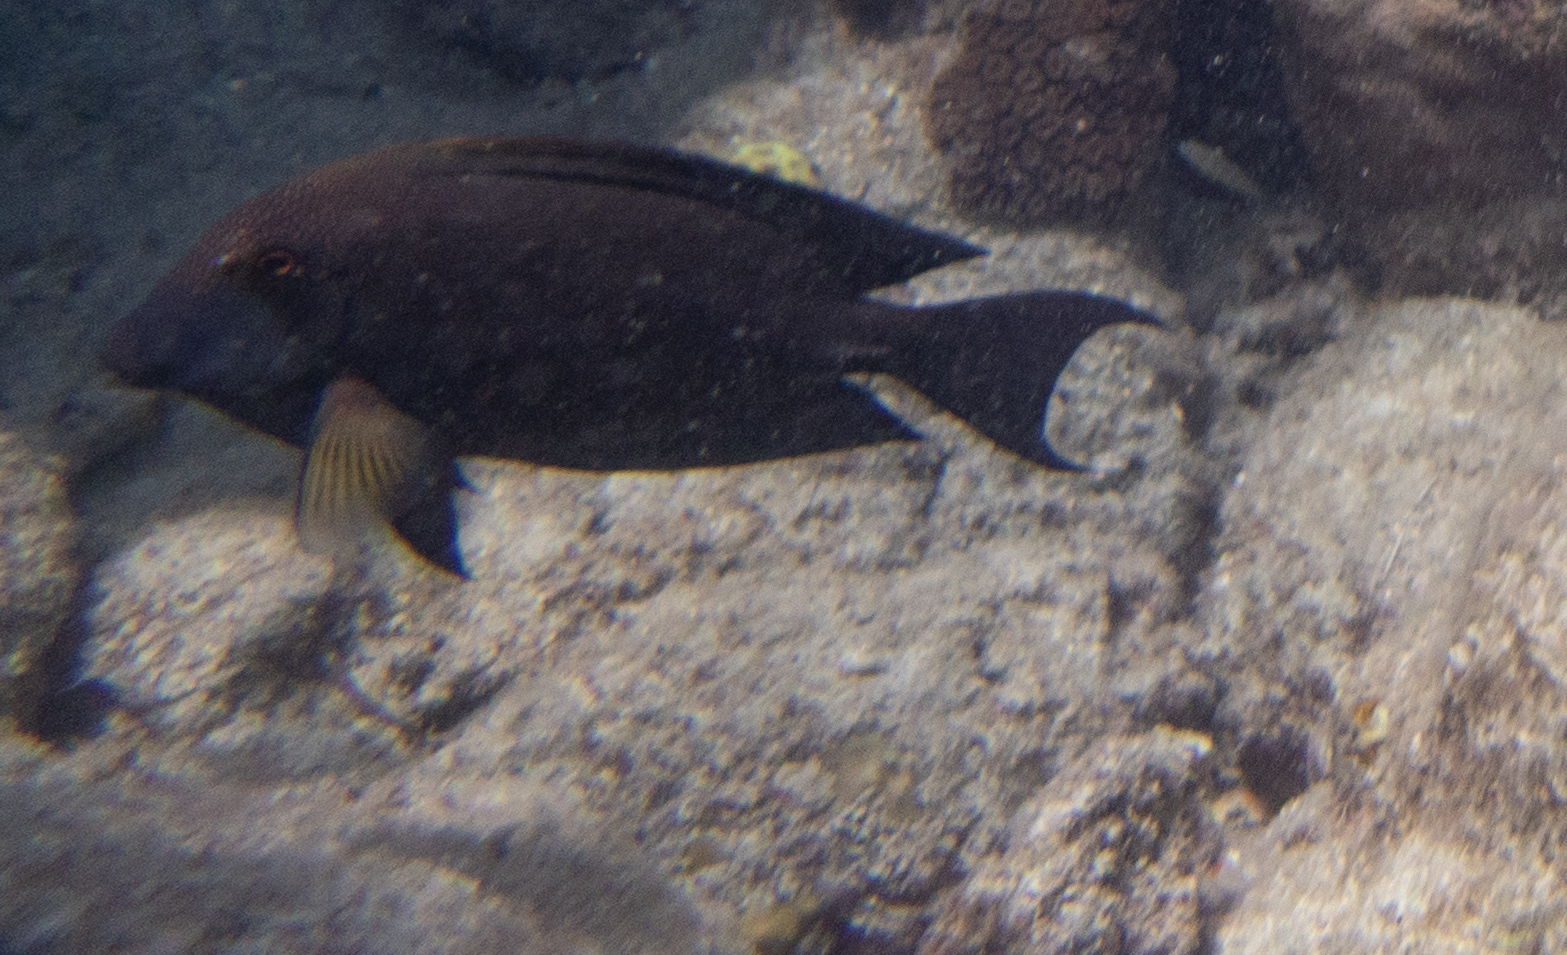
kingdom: Animalia
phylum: Chordata
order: Perciformes
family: Acanthuridae
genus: Ctenochaetus
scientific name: Ctenochaetus striatus
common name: Bristle-toothed surgeonfish
